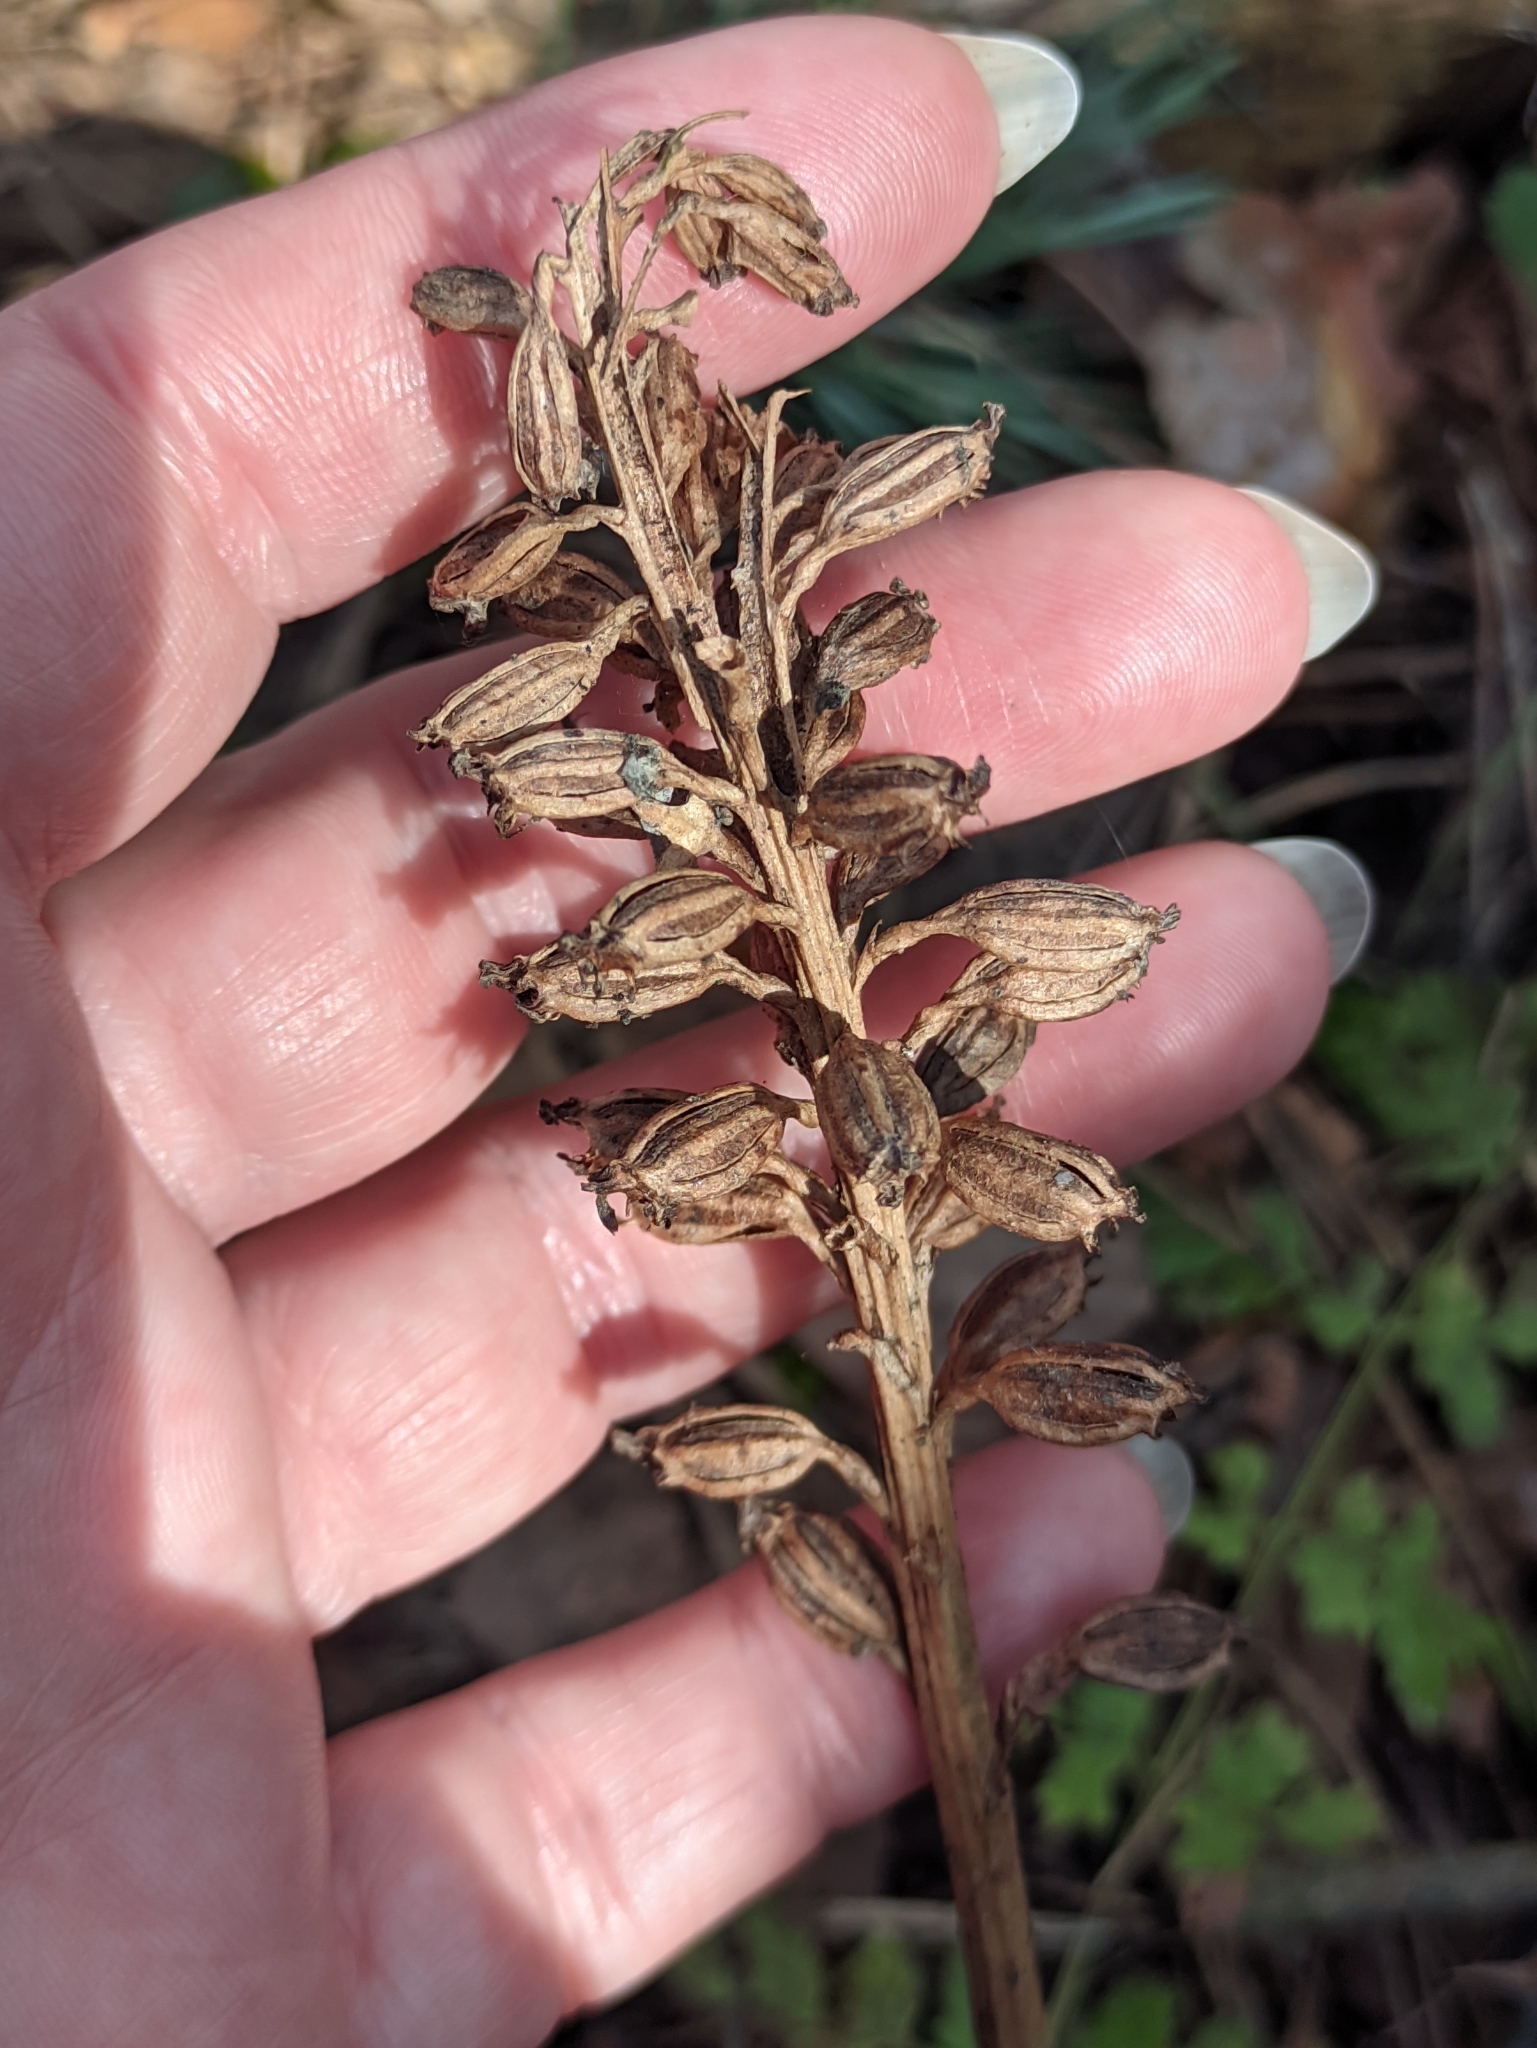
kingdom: Plantae
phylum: Tracheophyta
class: Liliopsida
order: Asparagales
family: Orchidaceae
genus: Neottia
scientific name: Neottia nidus-avis
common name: Bird's-nest orchid
